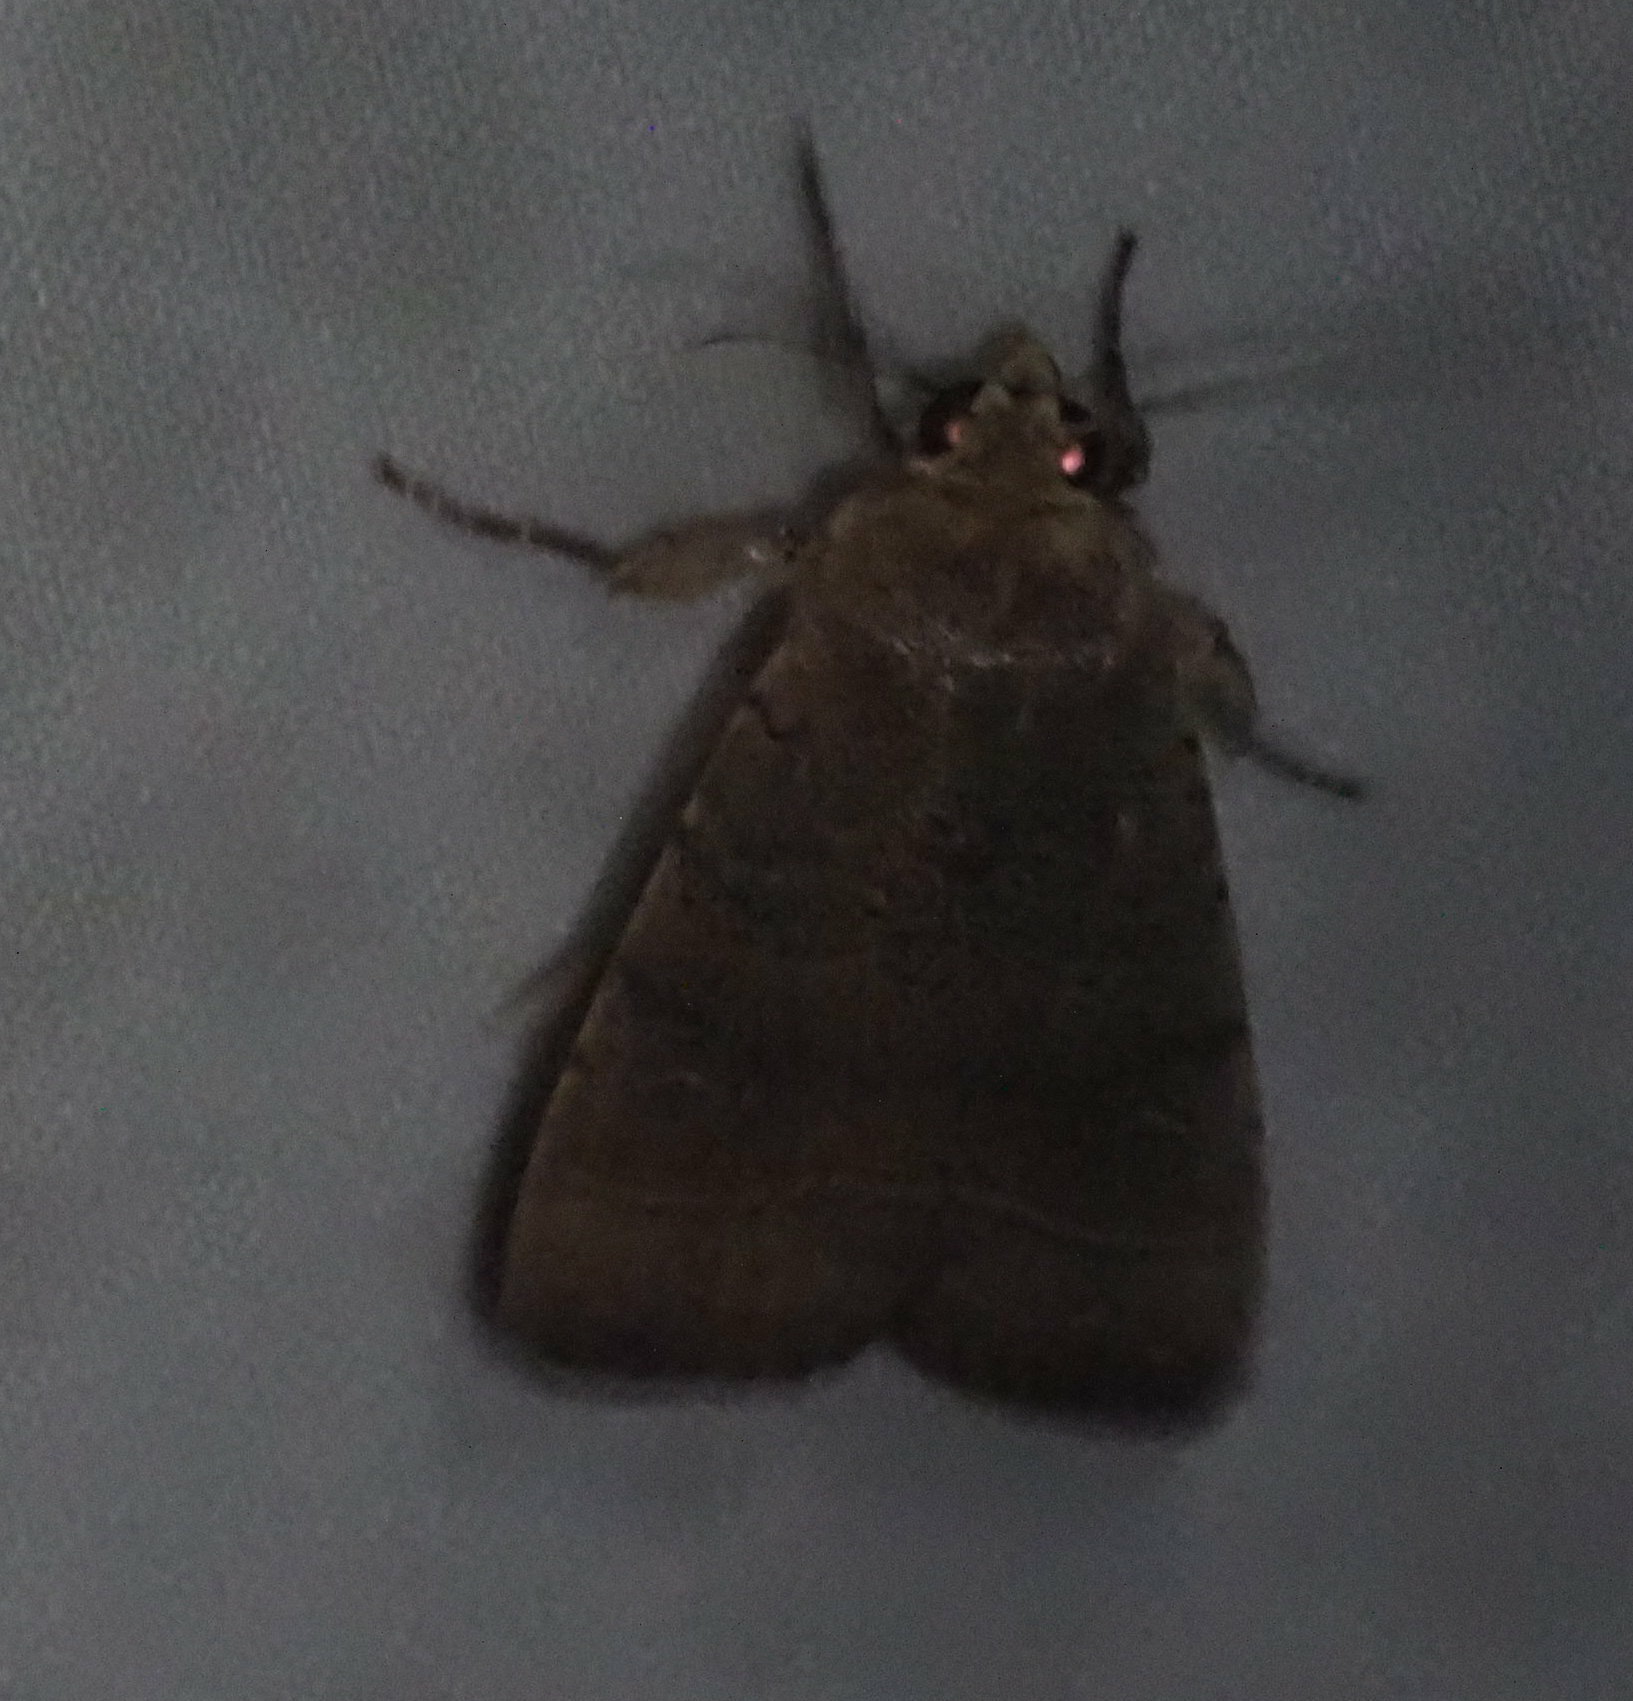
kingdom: Animalia
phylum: Arthropoda
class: Insecta
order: Lepidoptera
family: Noctuidae
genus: Athetis
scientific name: Athetis thoracica
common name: Cutworm
